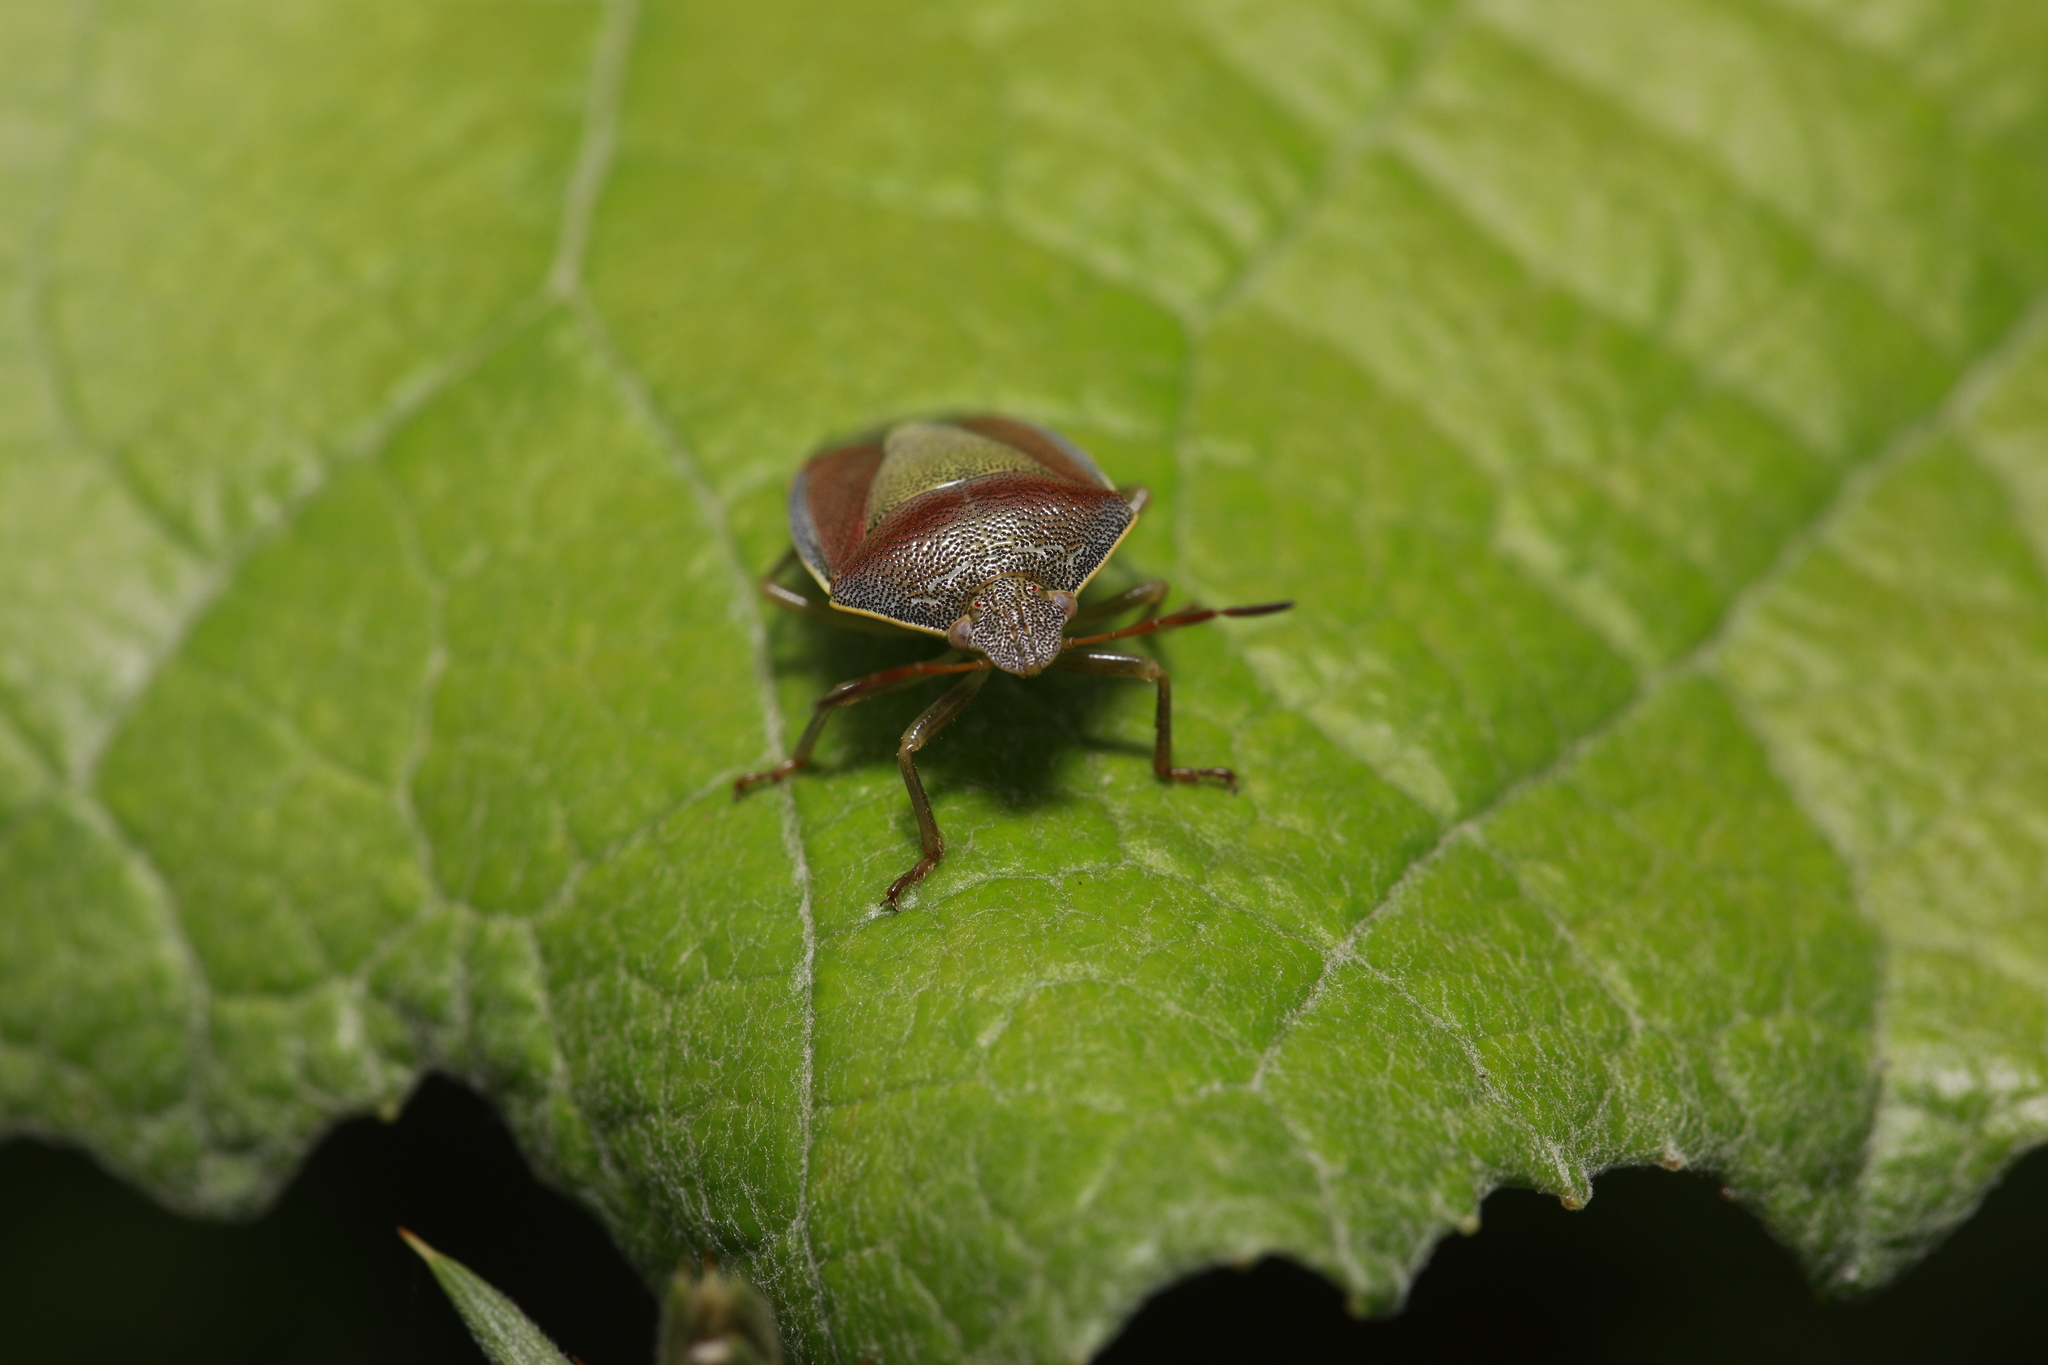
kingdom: Animalia
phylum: Arthropoda
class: Insecta
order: Hemiptera
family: Pentatomidae
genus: Piezodorus
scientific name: Piezodorus lituratus
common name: Stink bug
